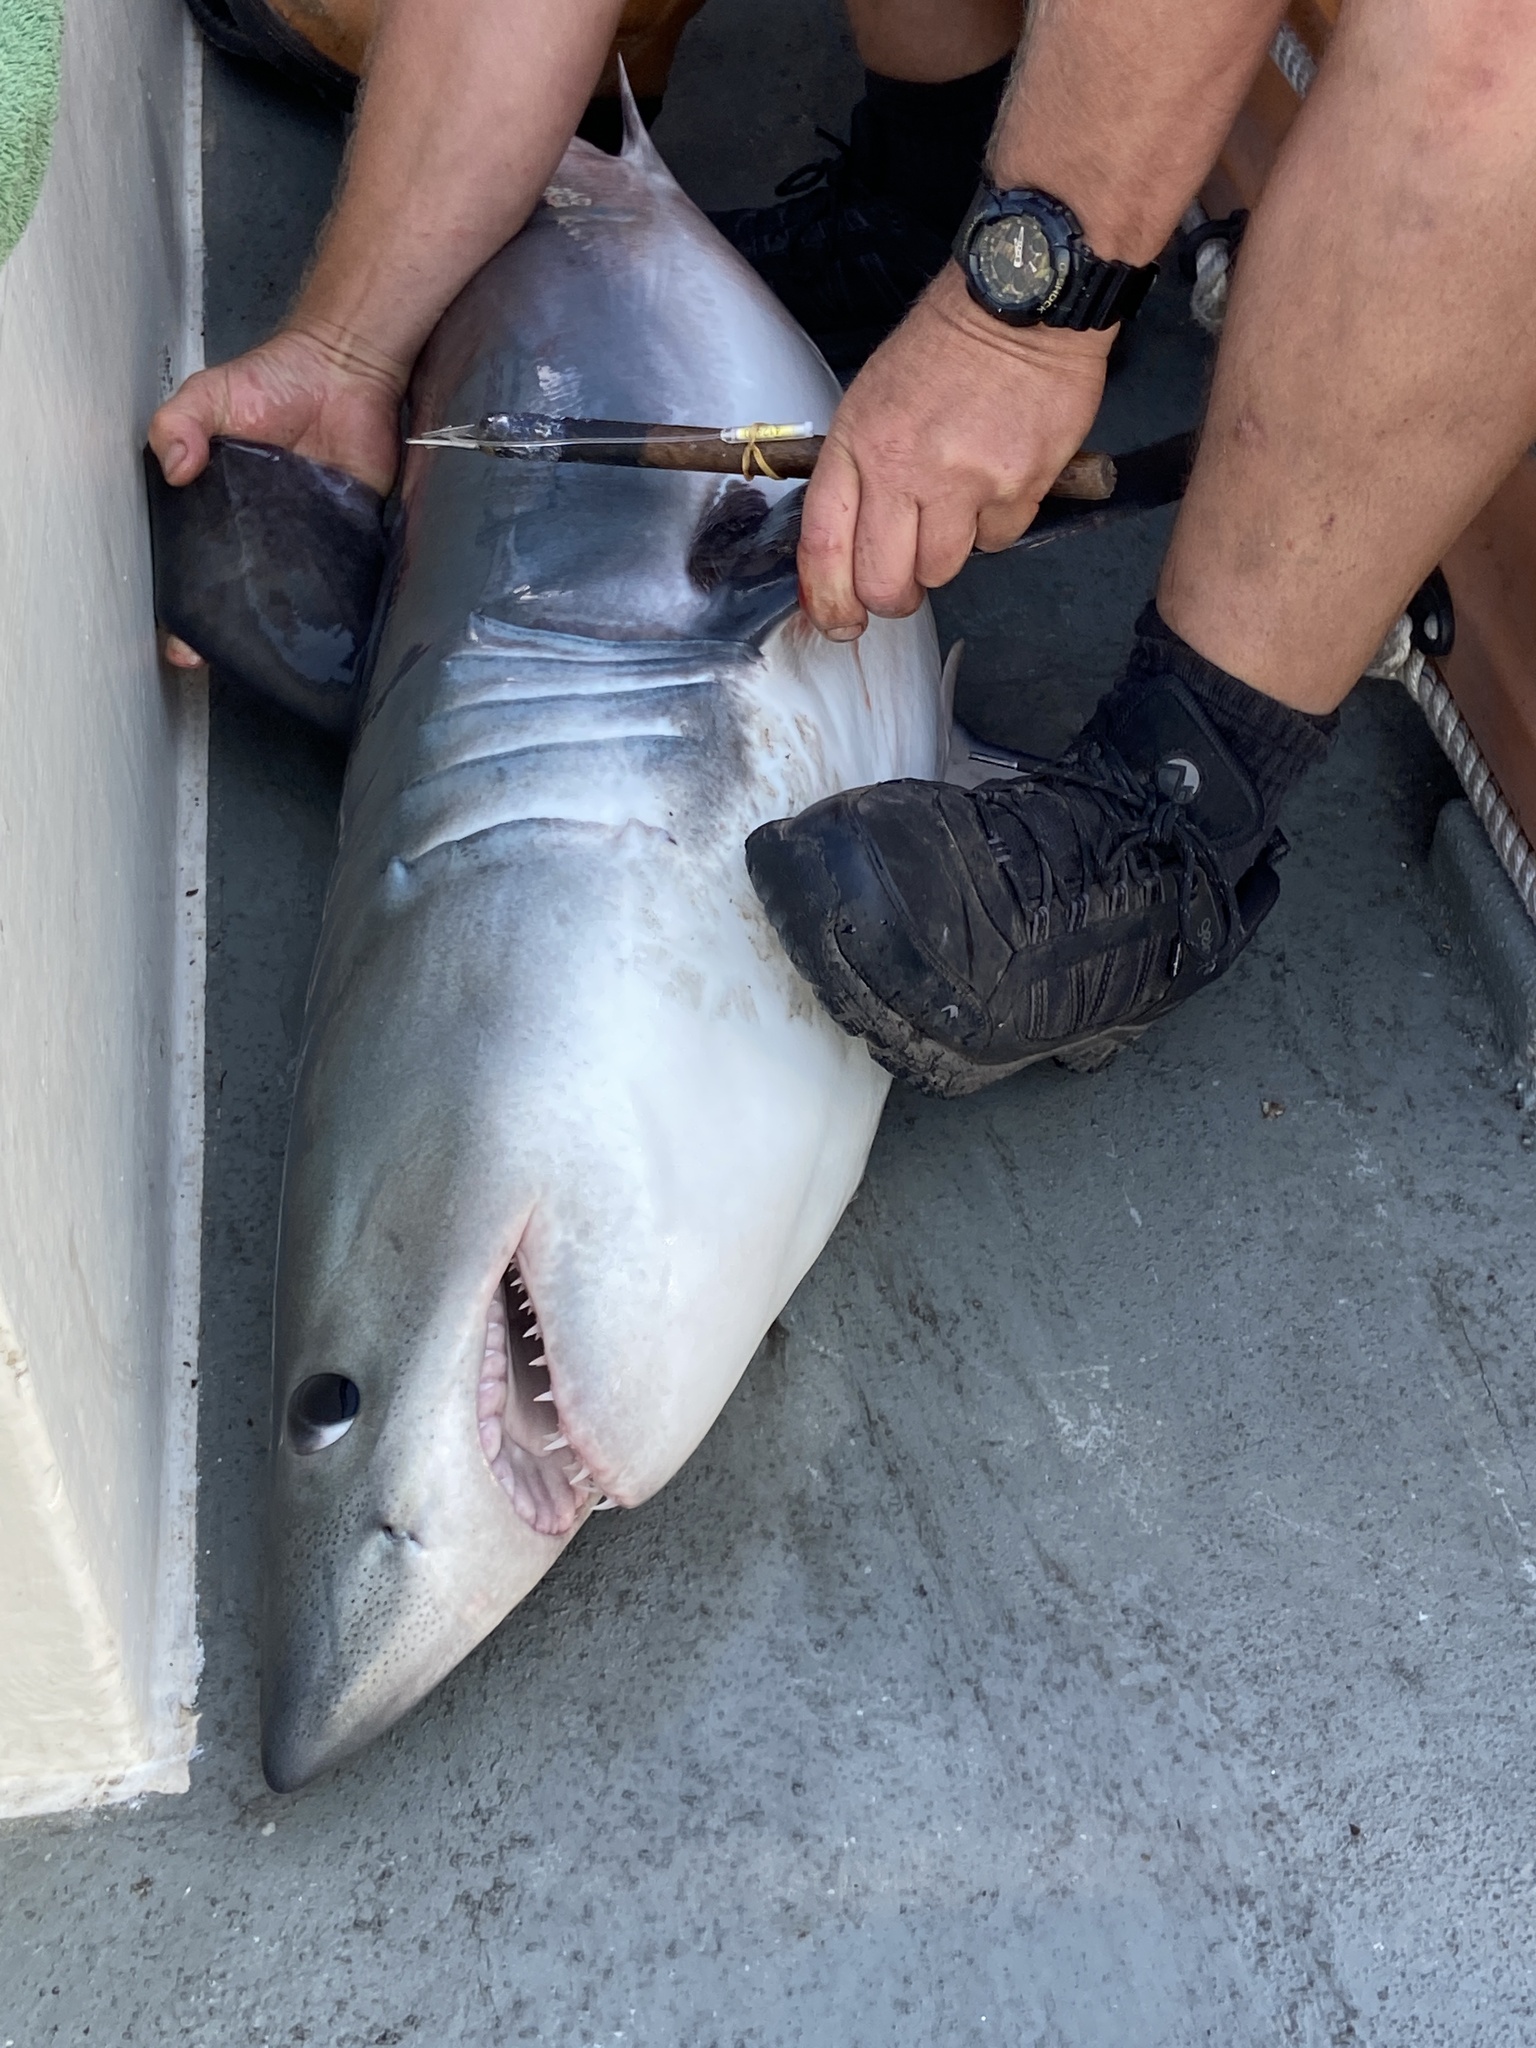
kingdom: Animalia
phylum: Chordata
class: Elasmobranchii
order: Lamniformes
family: Lamnidae
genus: Lamna
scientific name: Lamna nasus
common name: Porbeagle
